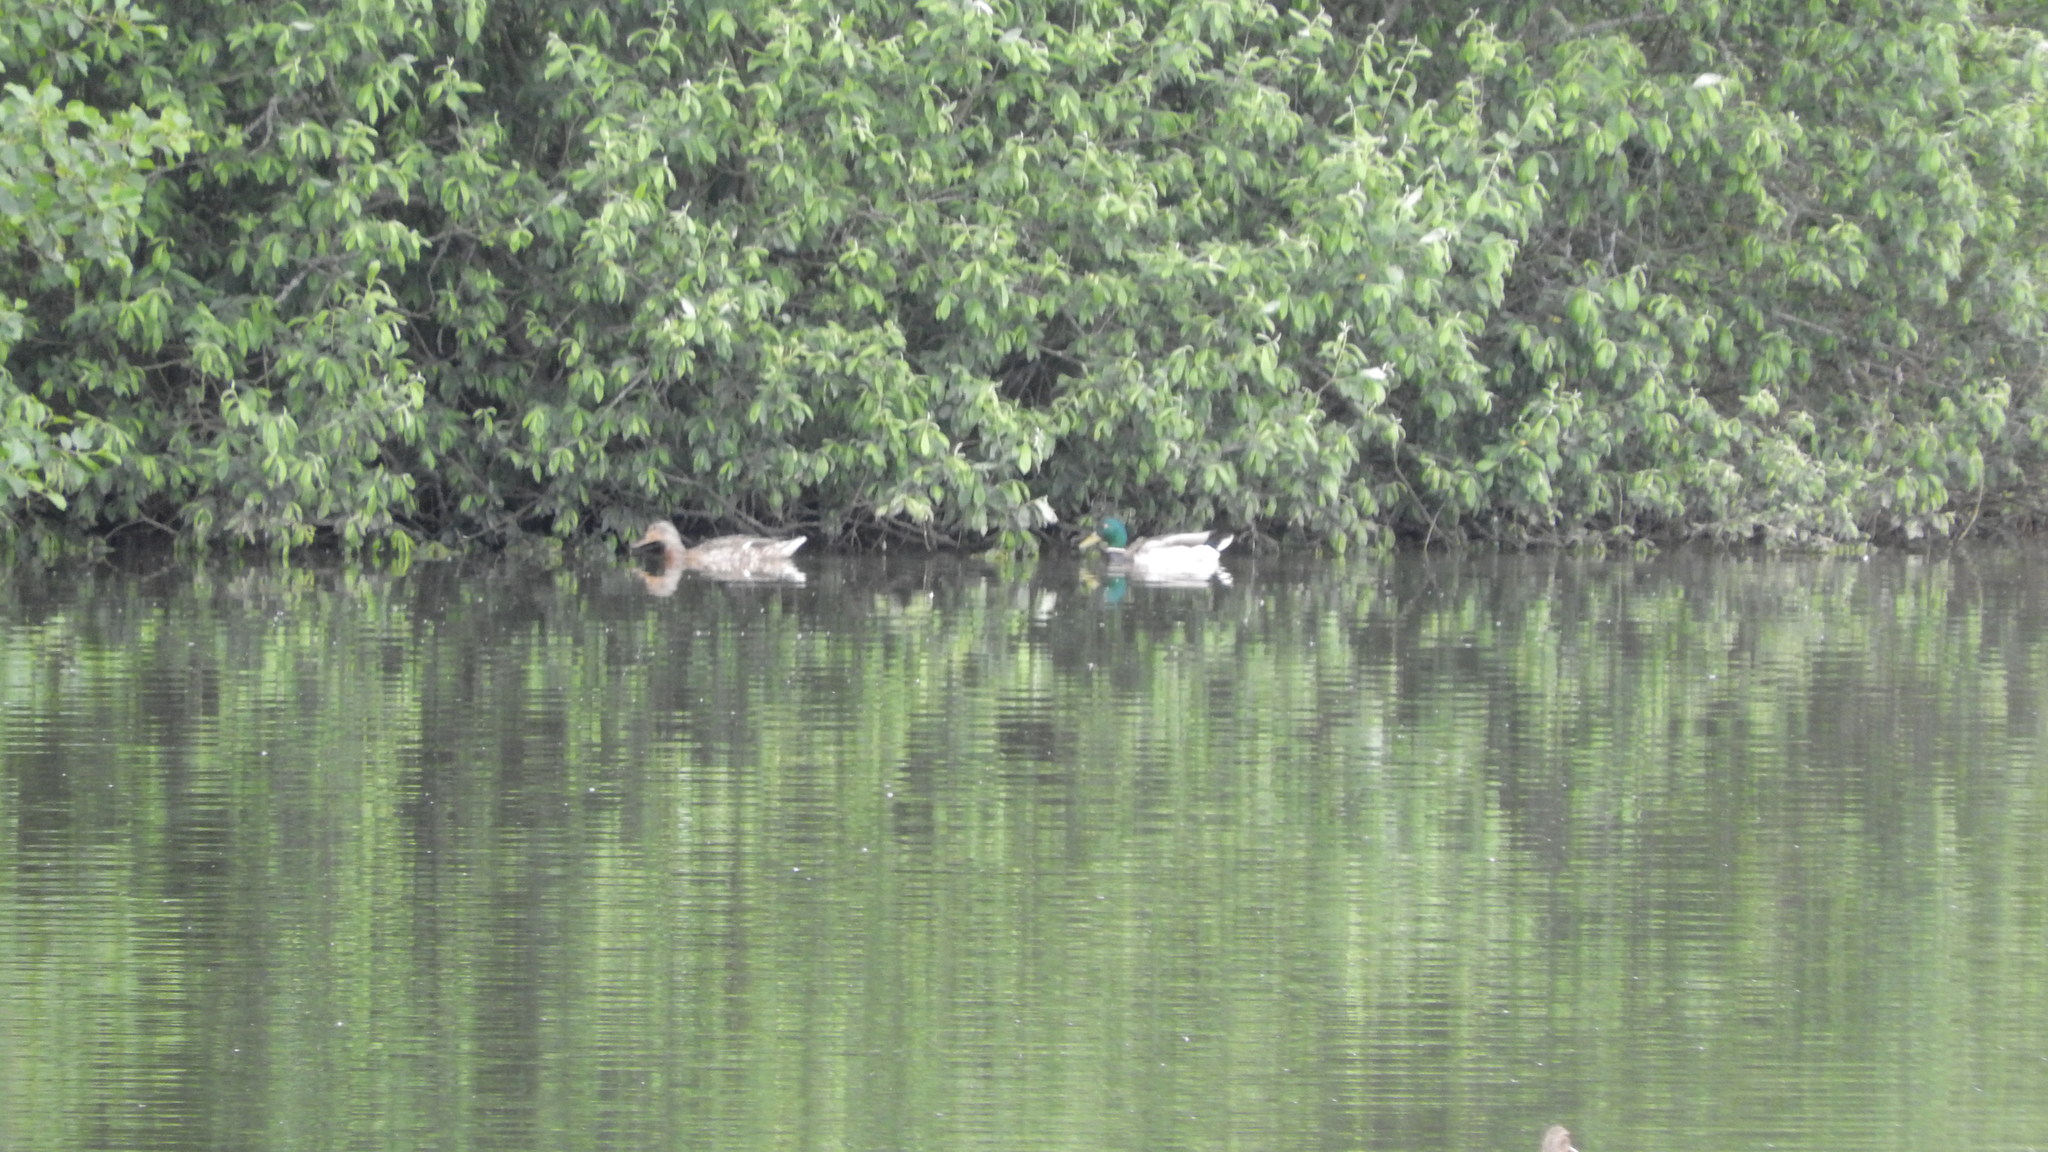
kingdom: Animalia
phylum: Chordata
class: Aves
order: Anseriformes
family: Anatidae
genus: Anas
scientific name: Anas platyrhynchos
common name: Mallard
